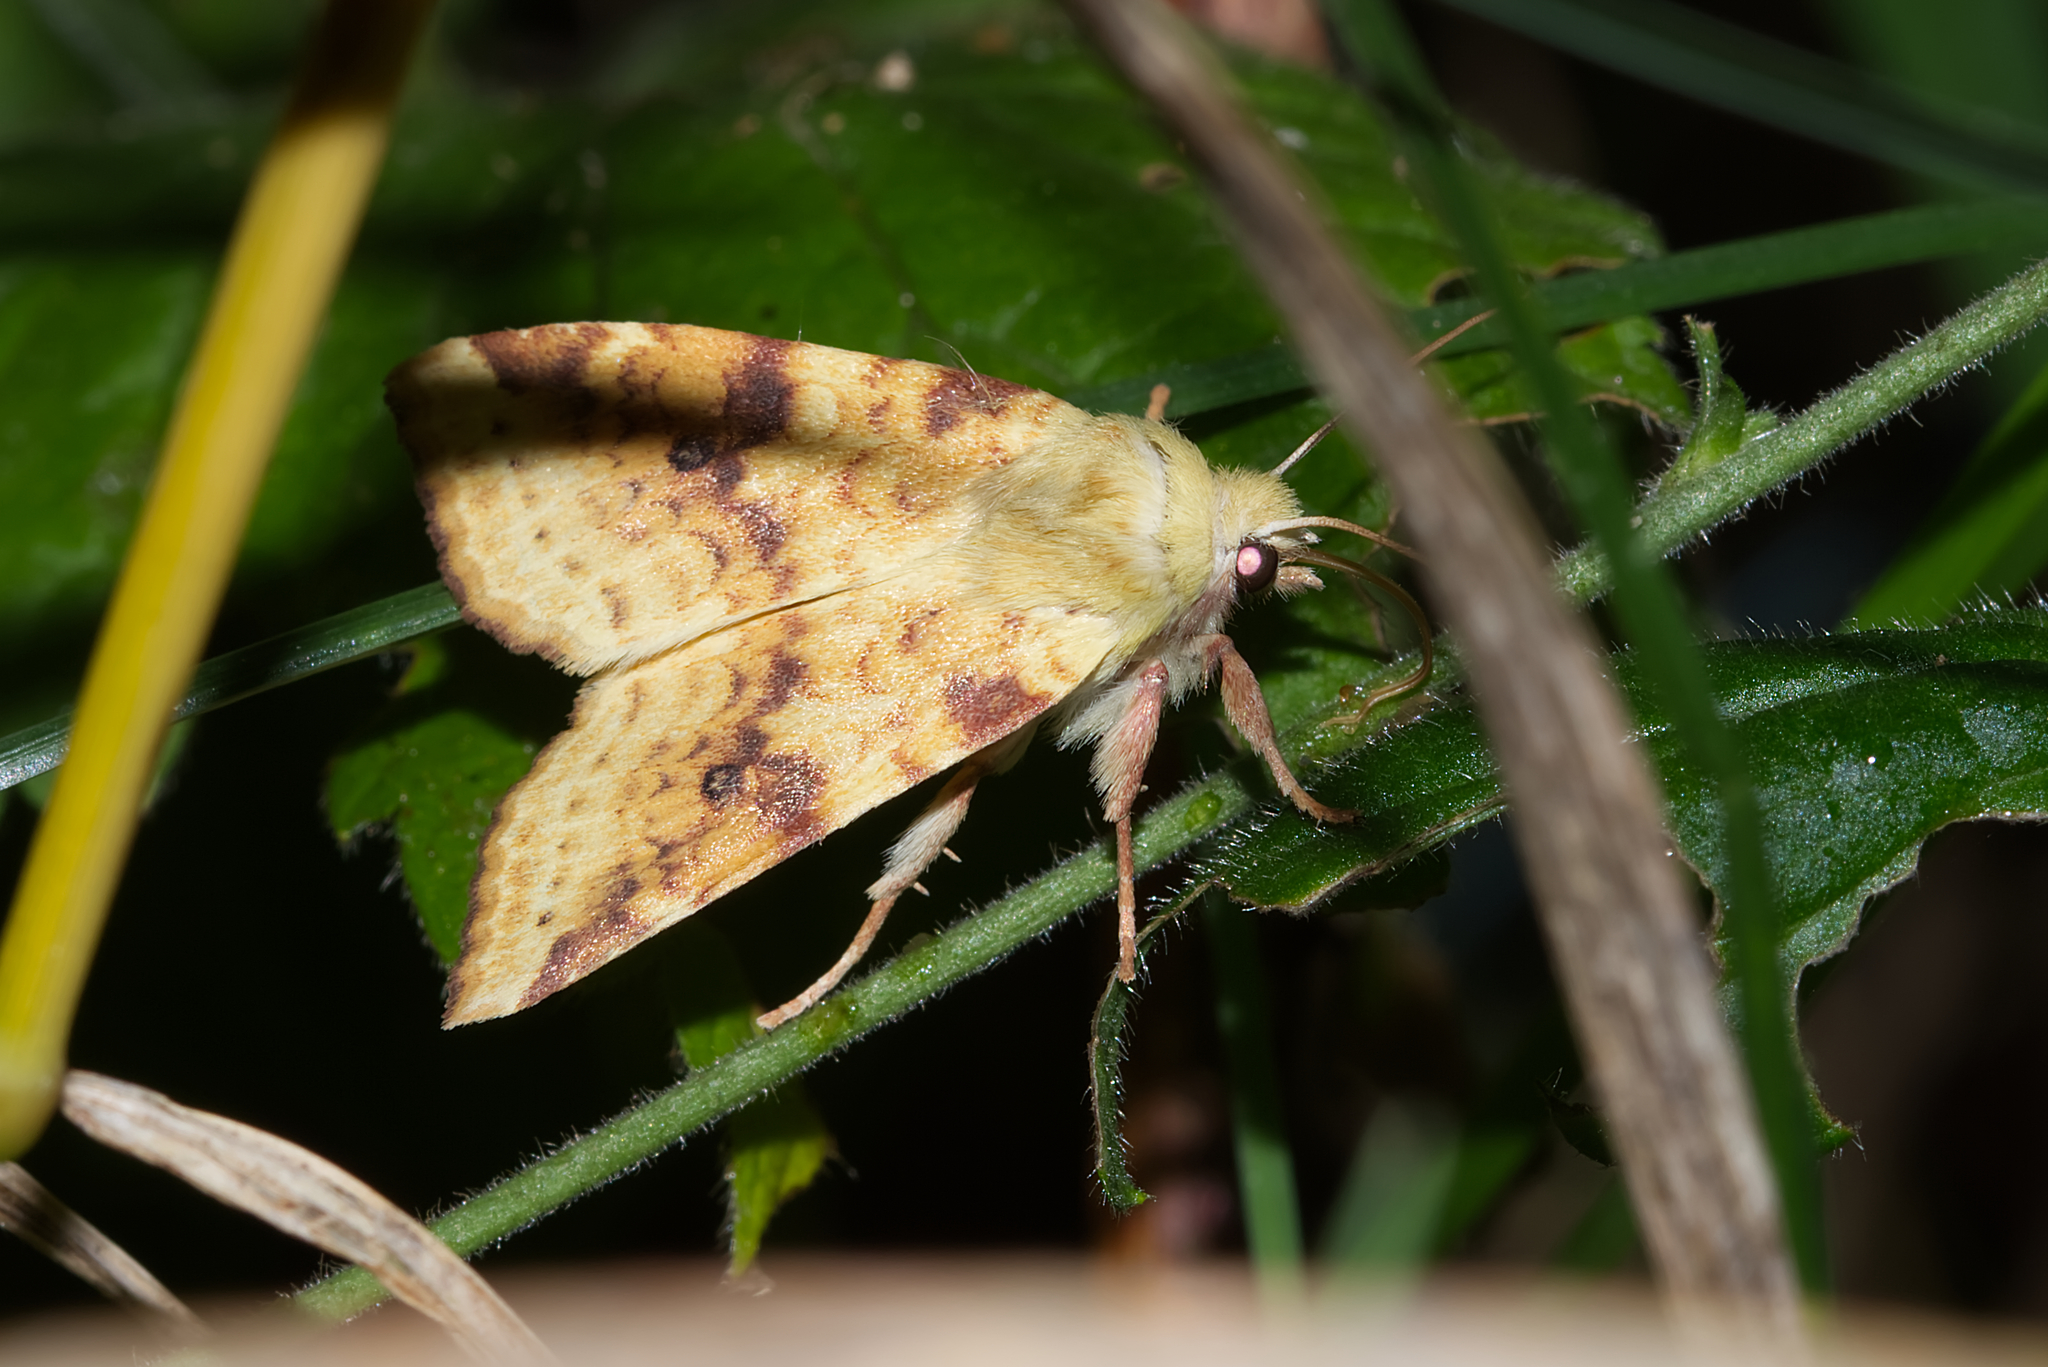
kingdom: Animalia
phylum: Arthropoda
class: Insecta
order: Lepidoptera
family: Noctuidae
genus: Xanthia
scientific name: Xanthia icteritia
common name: The sallow
